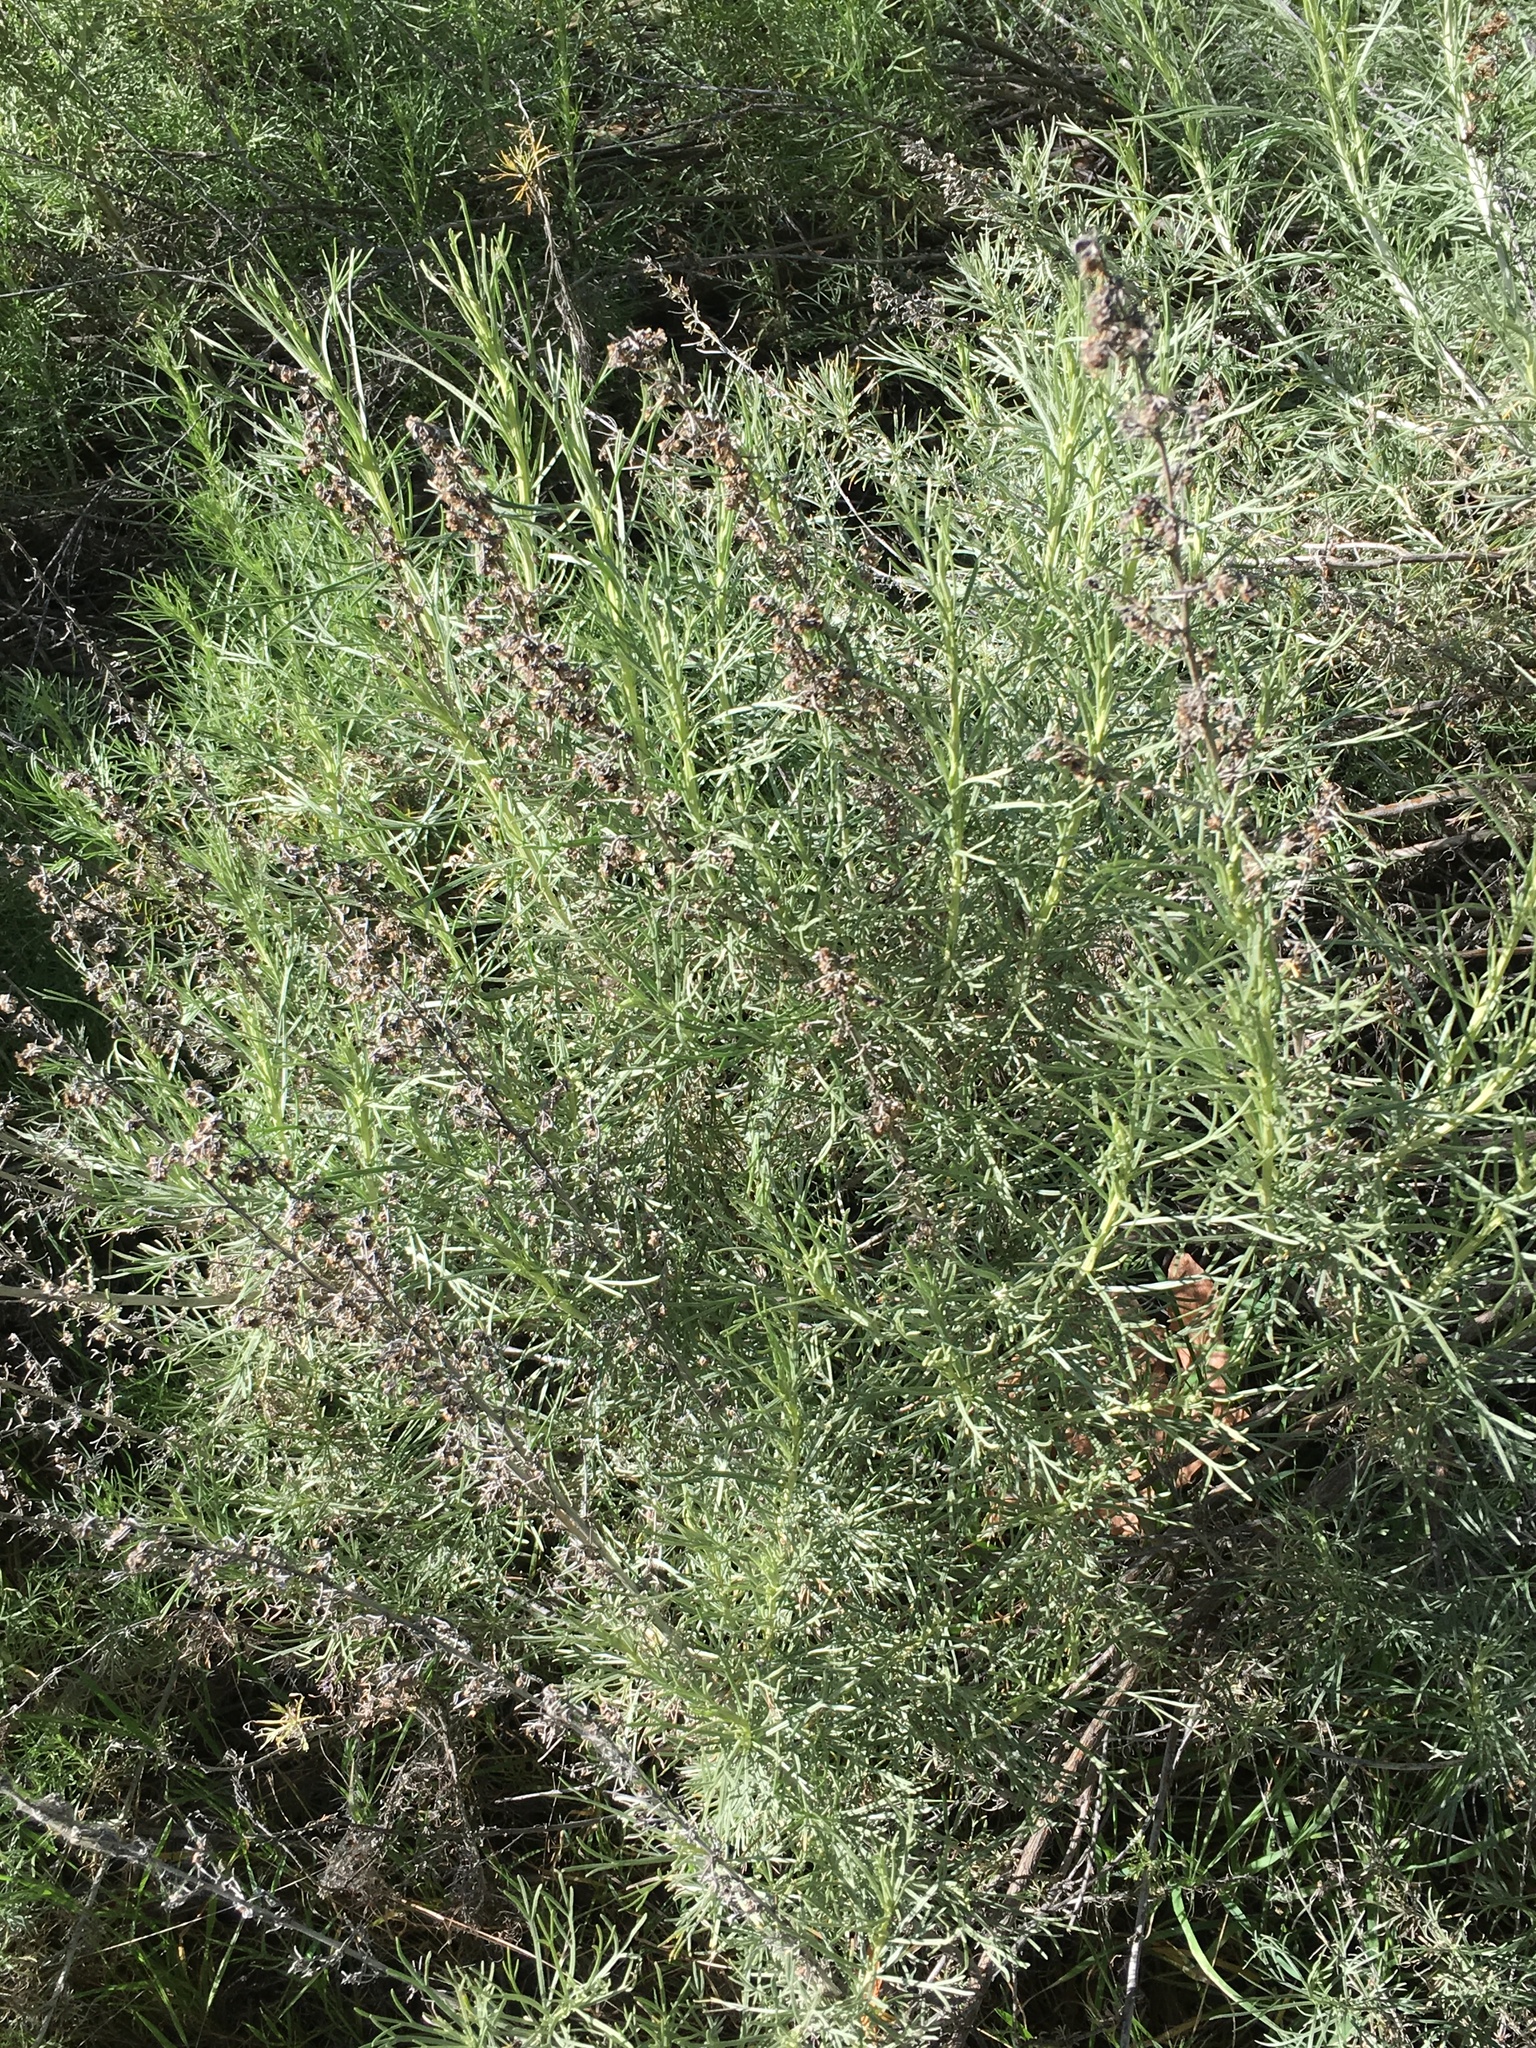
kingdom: Plantae
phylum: Tracheophyta
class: Magnoliopsida
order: Asterales
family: Asteraceae
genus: Artemisia
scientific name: Artemisia californica
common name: California sagebrush
